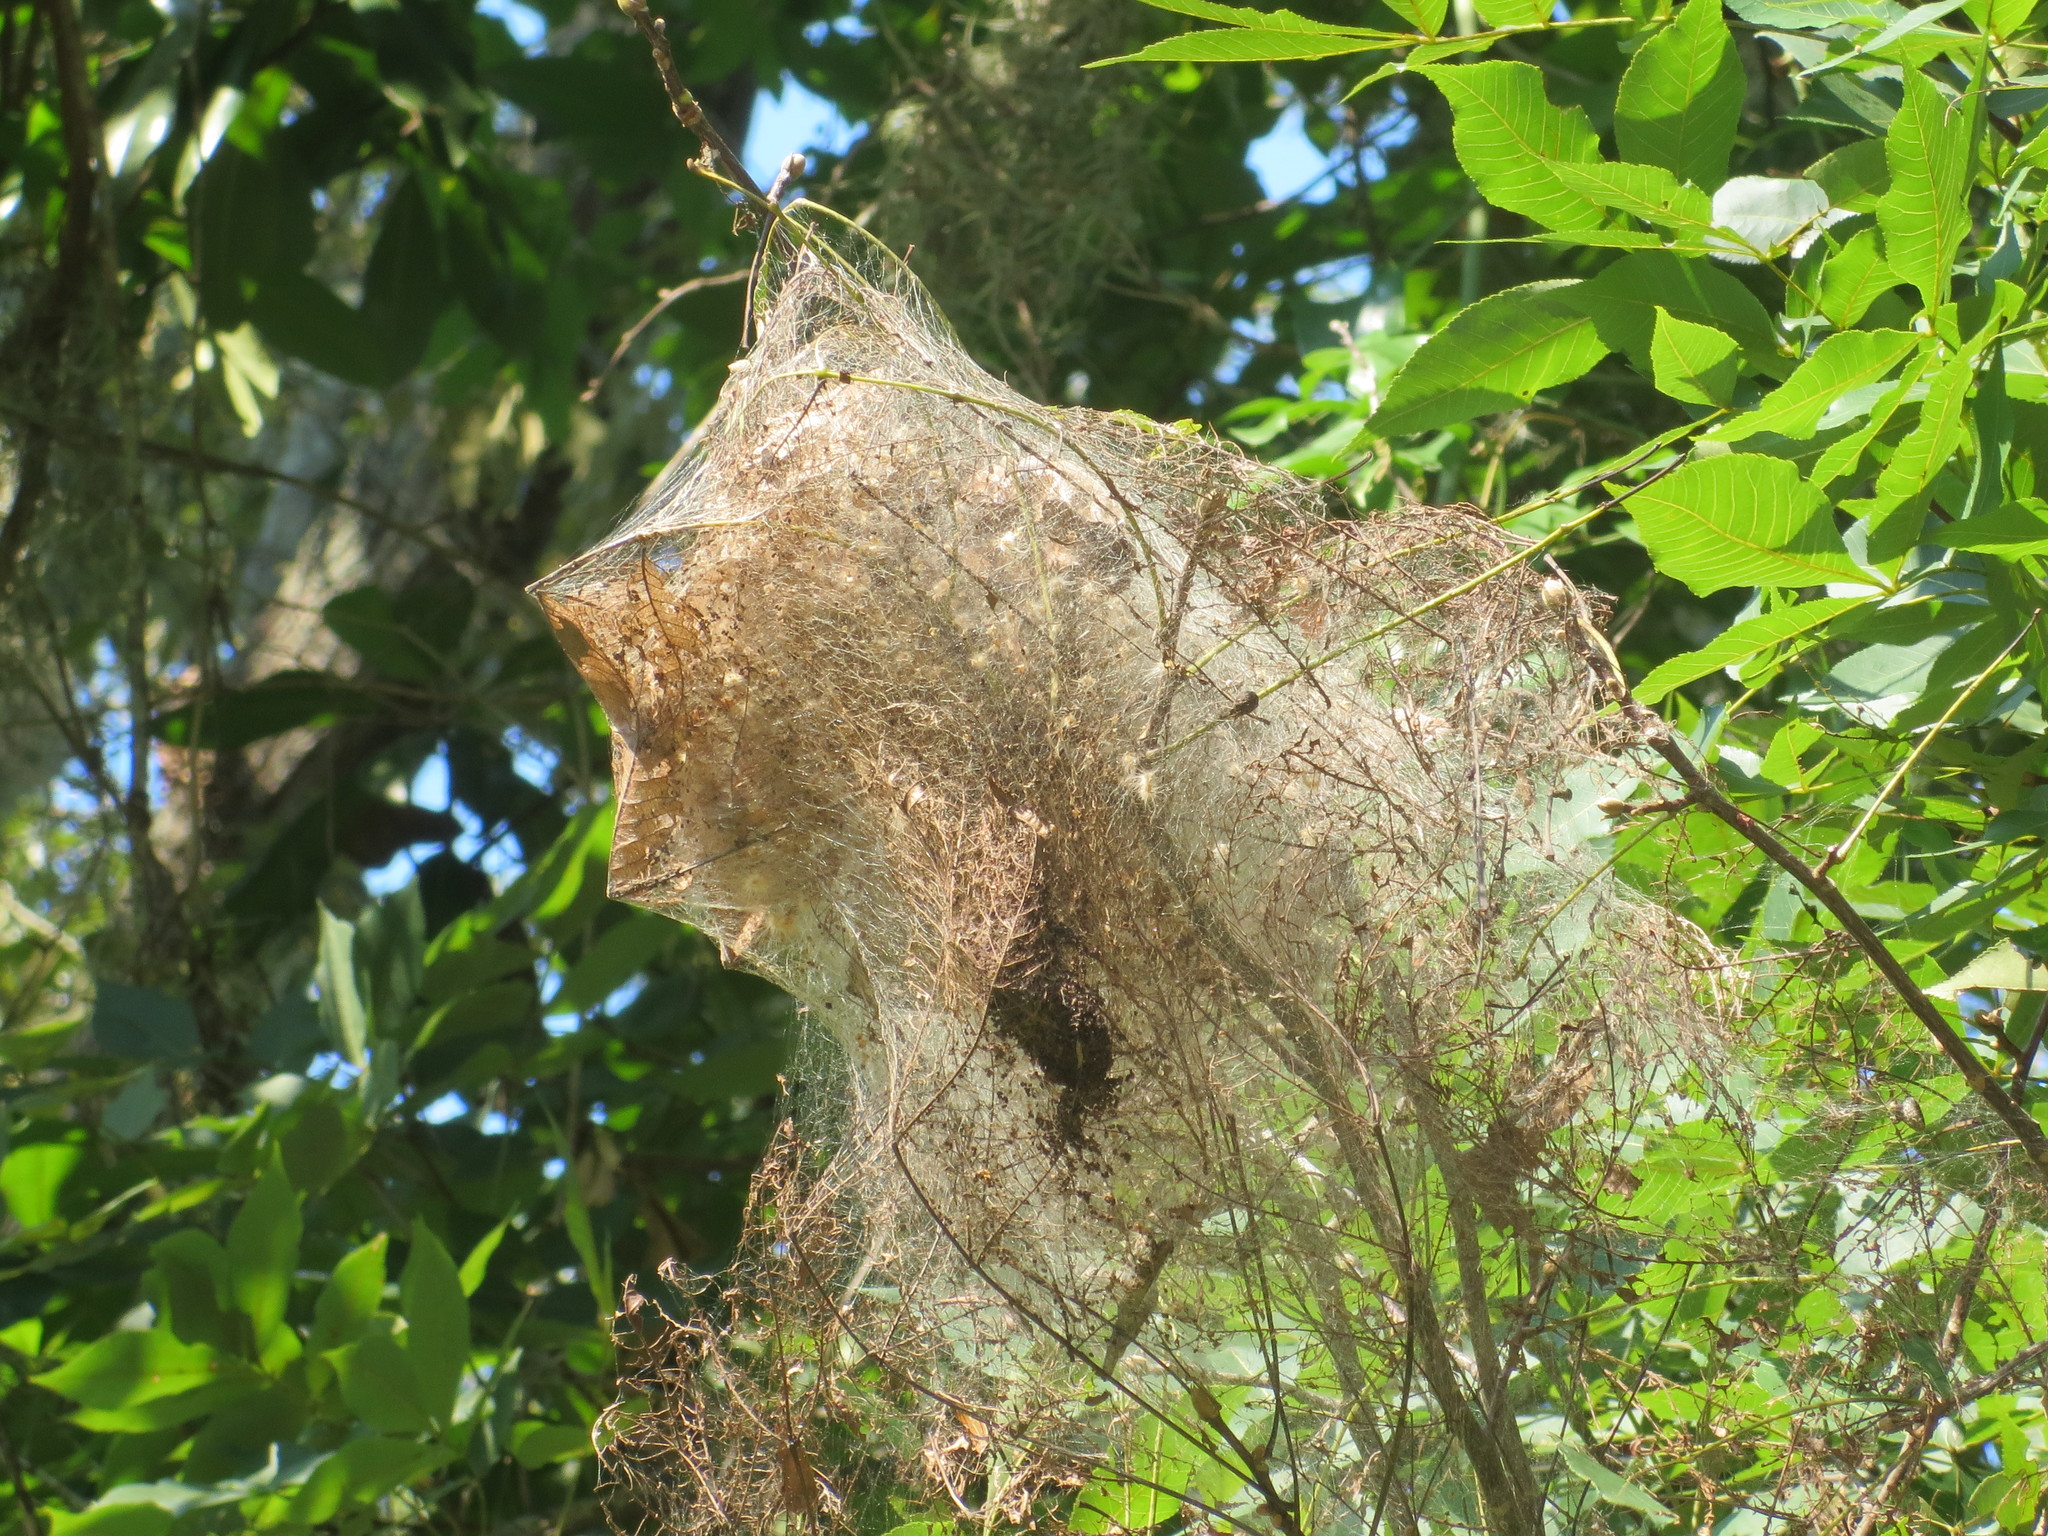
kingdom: Animalia
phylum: Arthropoda
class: Insecta
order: Lepidoptera
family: Erebidae
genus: Hyphantria
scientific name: Hyphantria cunea
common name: American white moth
